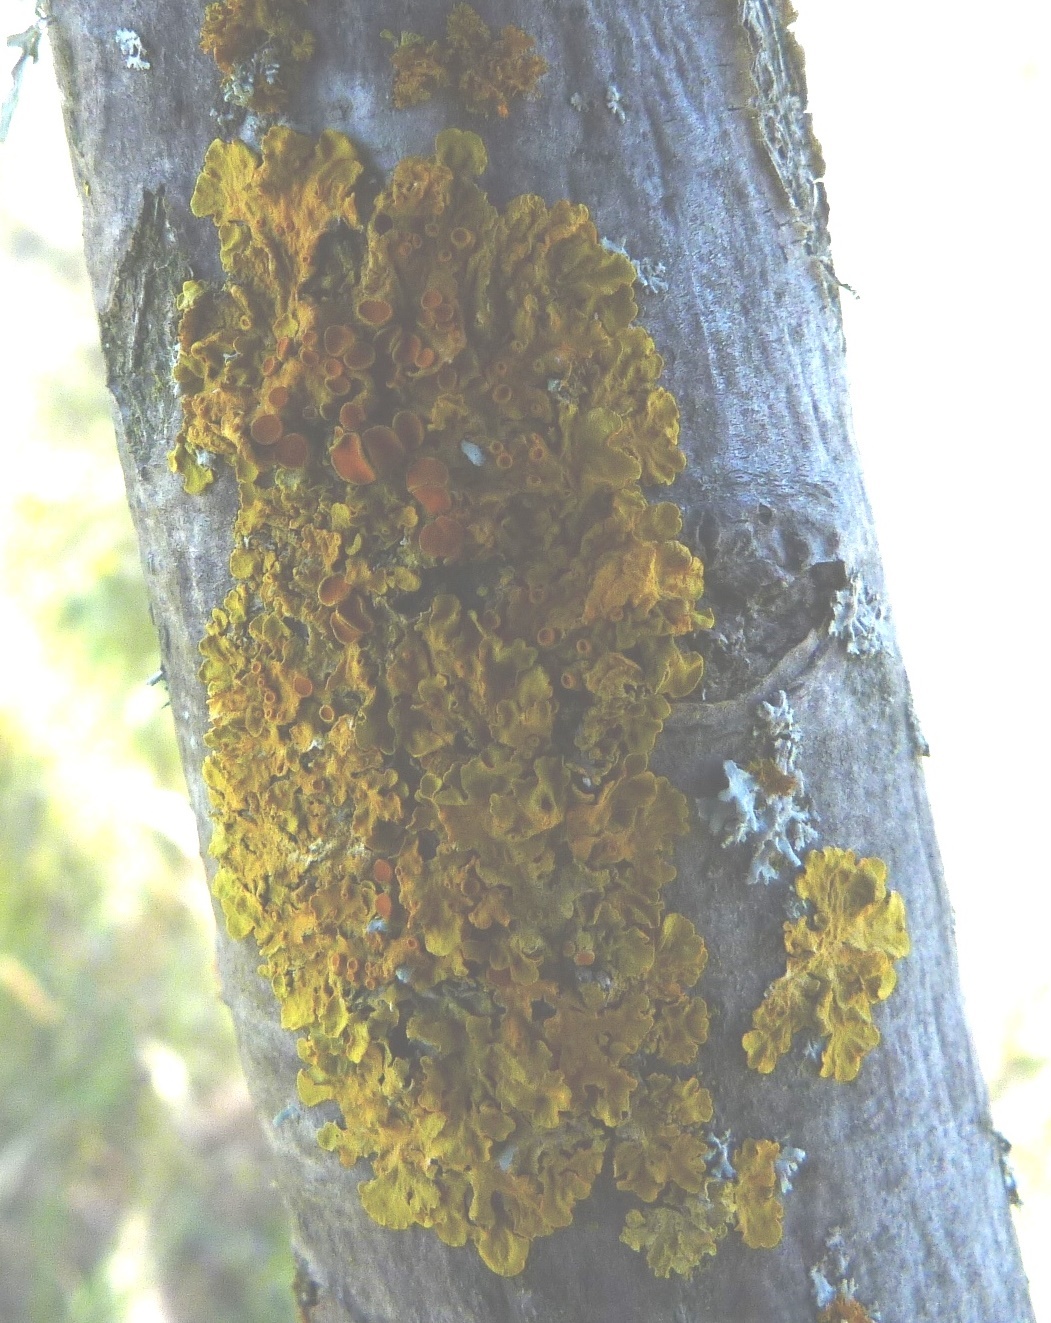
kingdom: Fungi
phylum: Ascomycota
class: Lecanoromycetes
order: Teloschistales
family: Teloschistaceae
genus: Xanthoria
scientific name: Xanthoria parietina
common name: Common orange lichen
